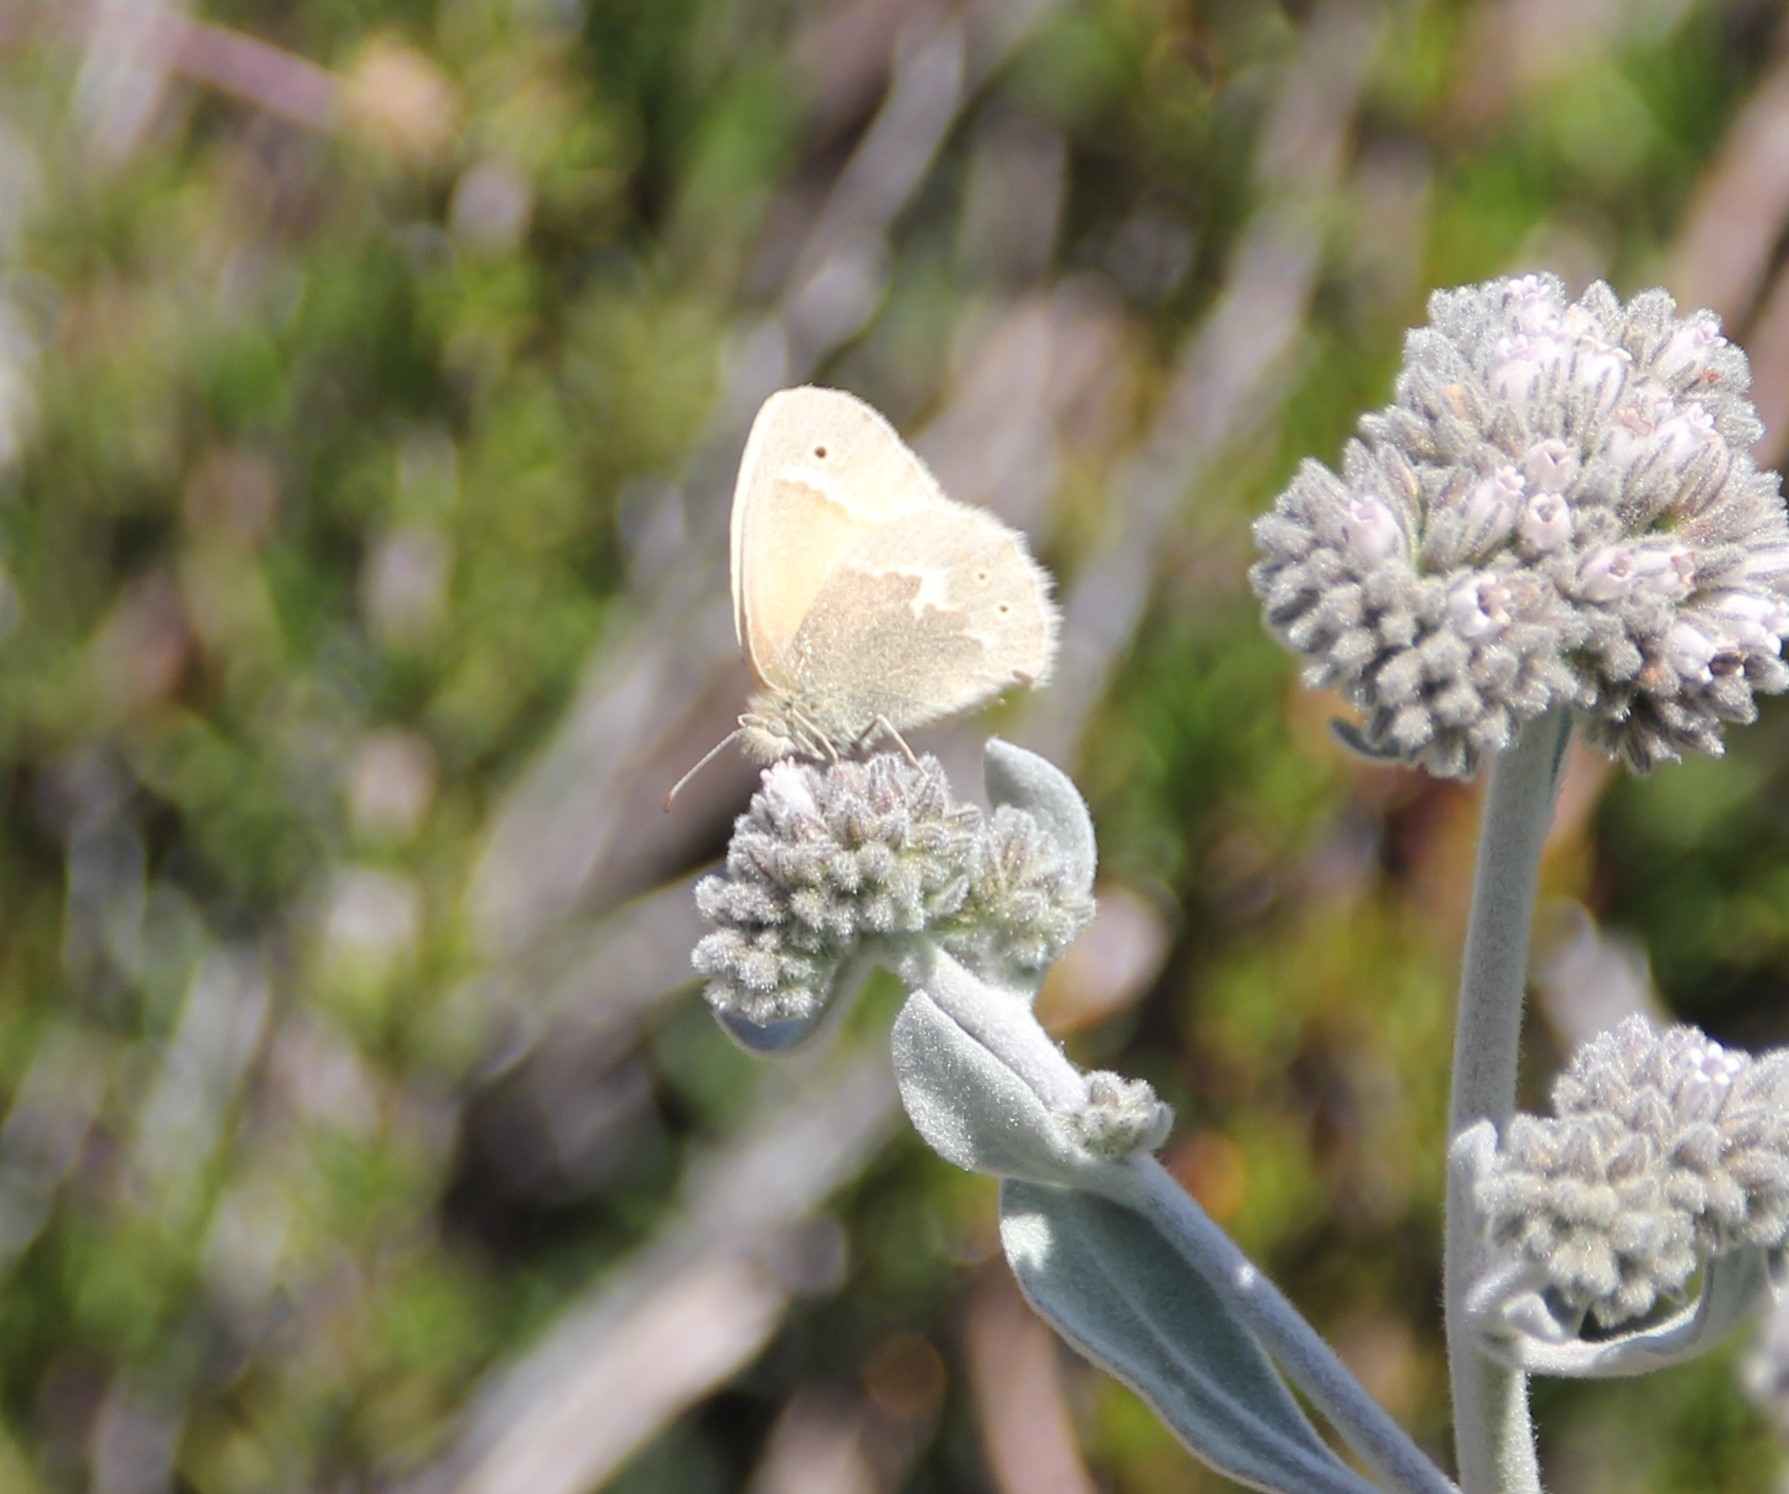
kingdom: Animalia
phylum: Arthropoda
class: Insecta
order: Lepidoptera
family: Nymphalidae
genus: Coenonympha
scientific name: Coenonympha california
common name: Common ringlet
